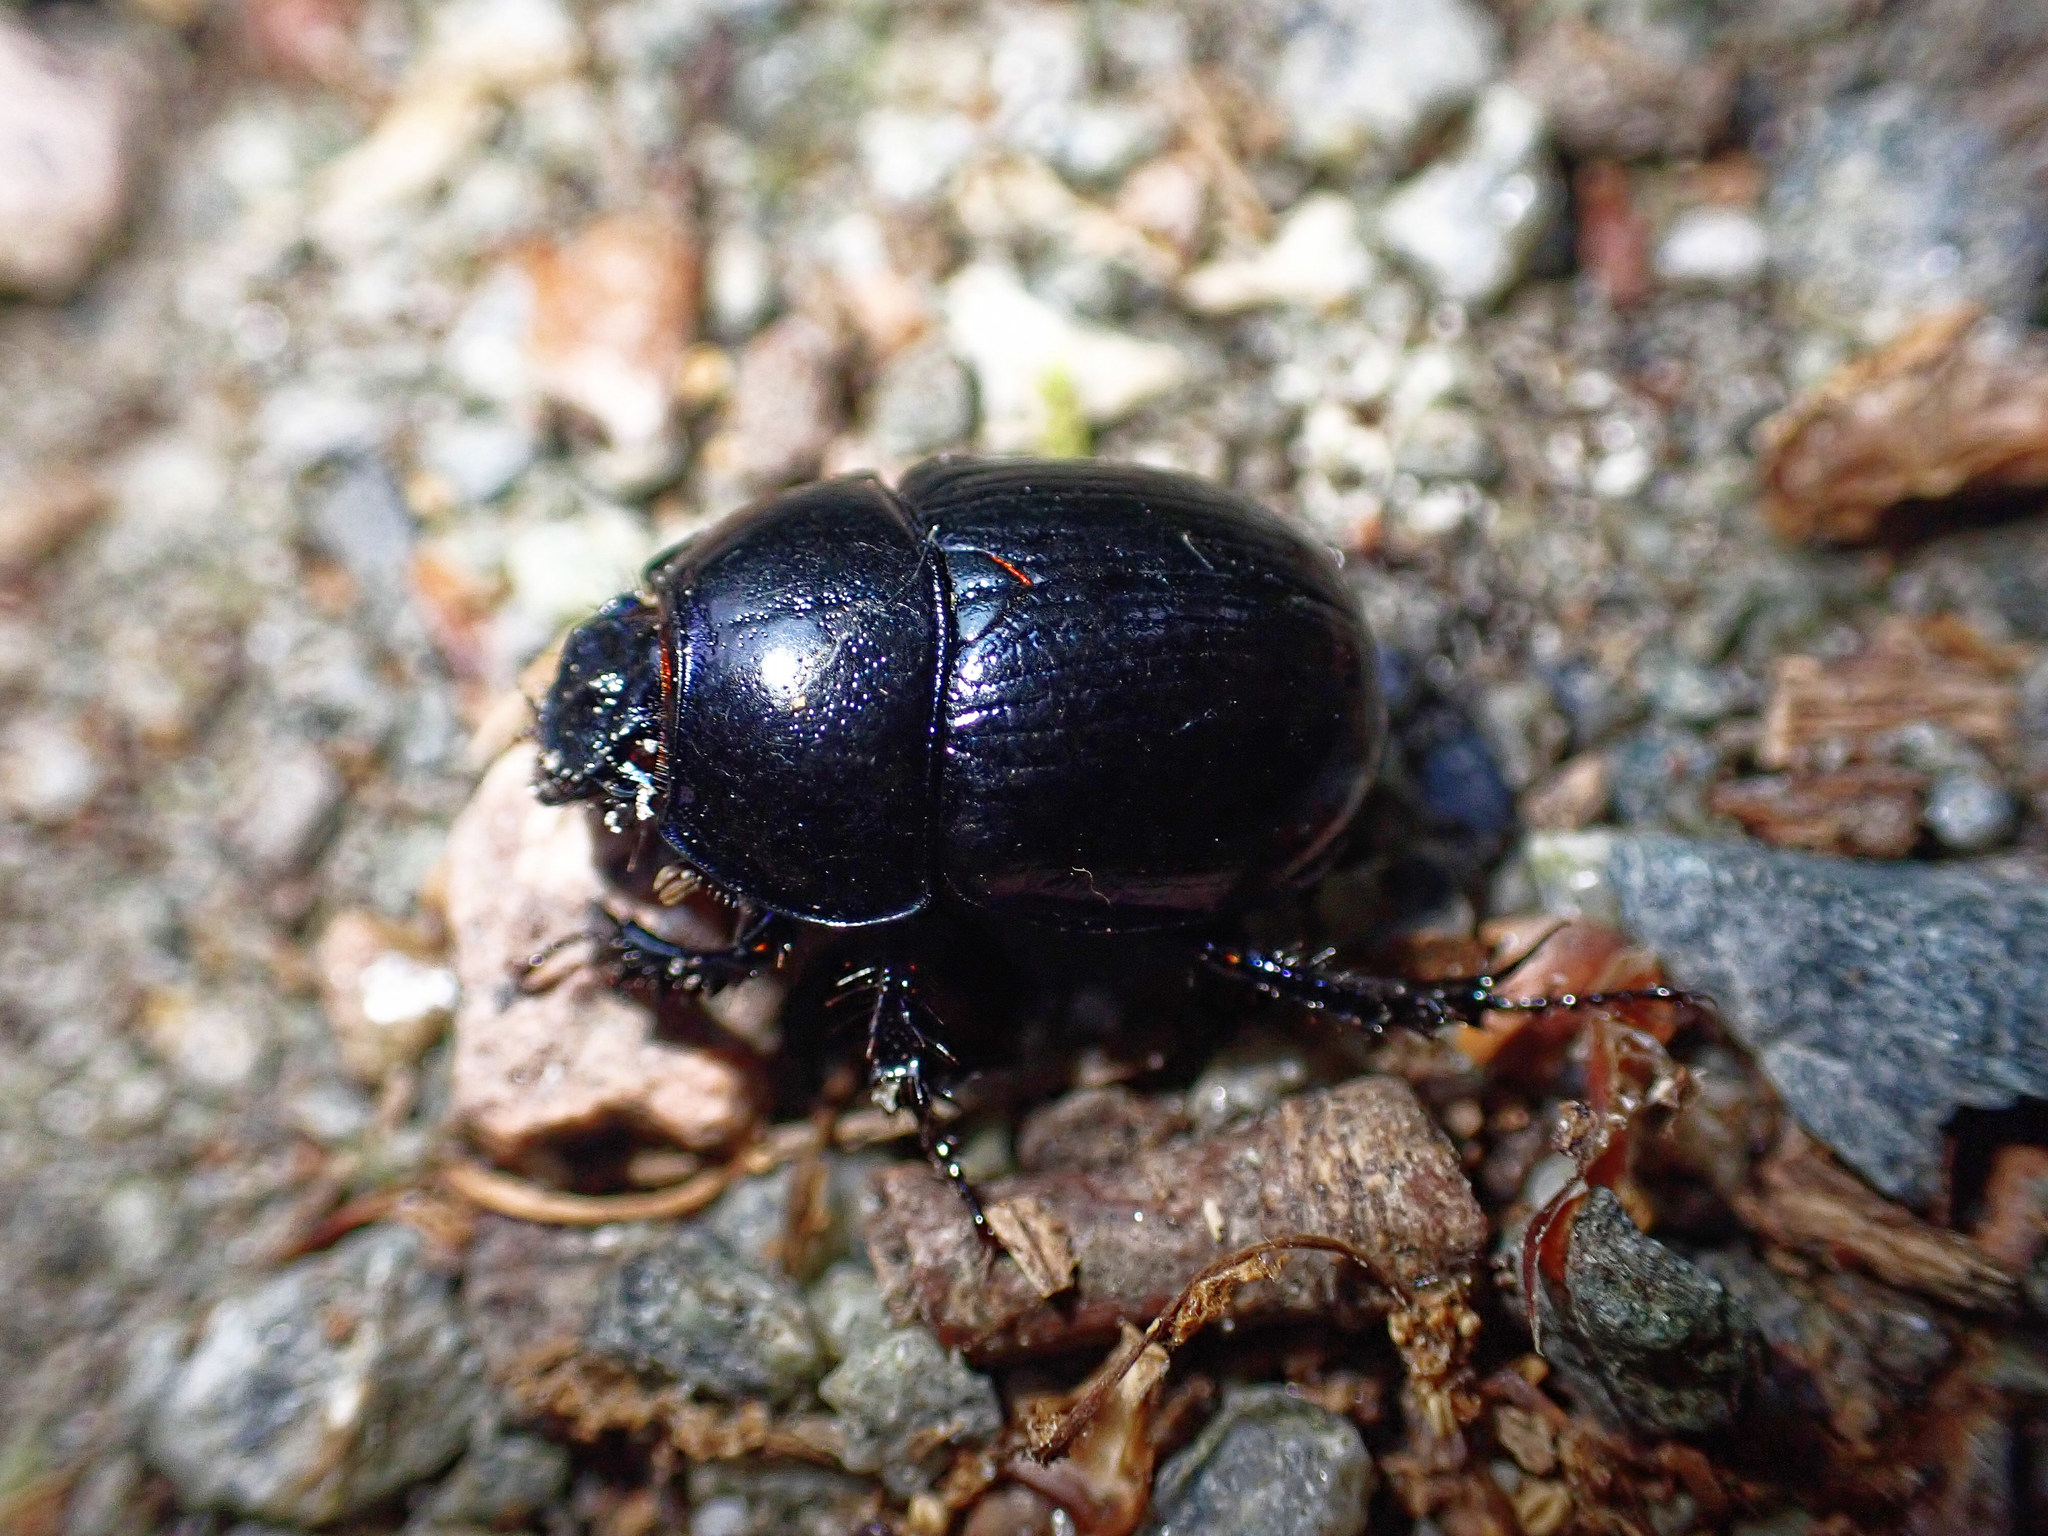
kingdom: Animalia
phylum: Arthropoda
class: Insecta
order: Coleoptera
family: Geotrupidae
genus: Anoplotrupes
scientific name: Anoplotrupes stercorosus
